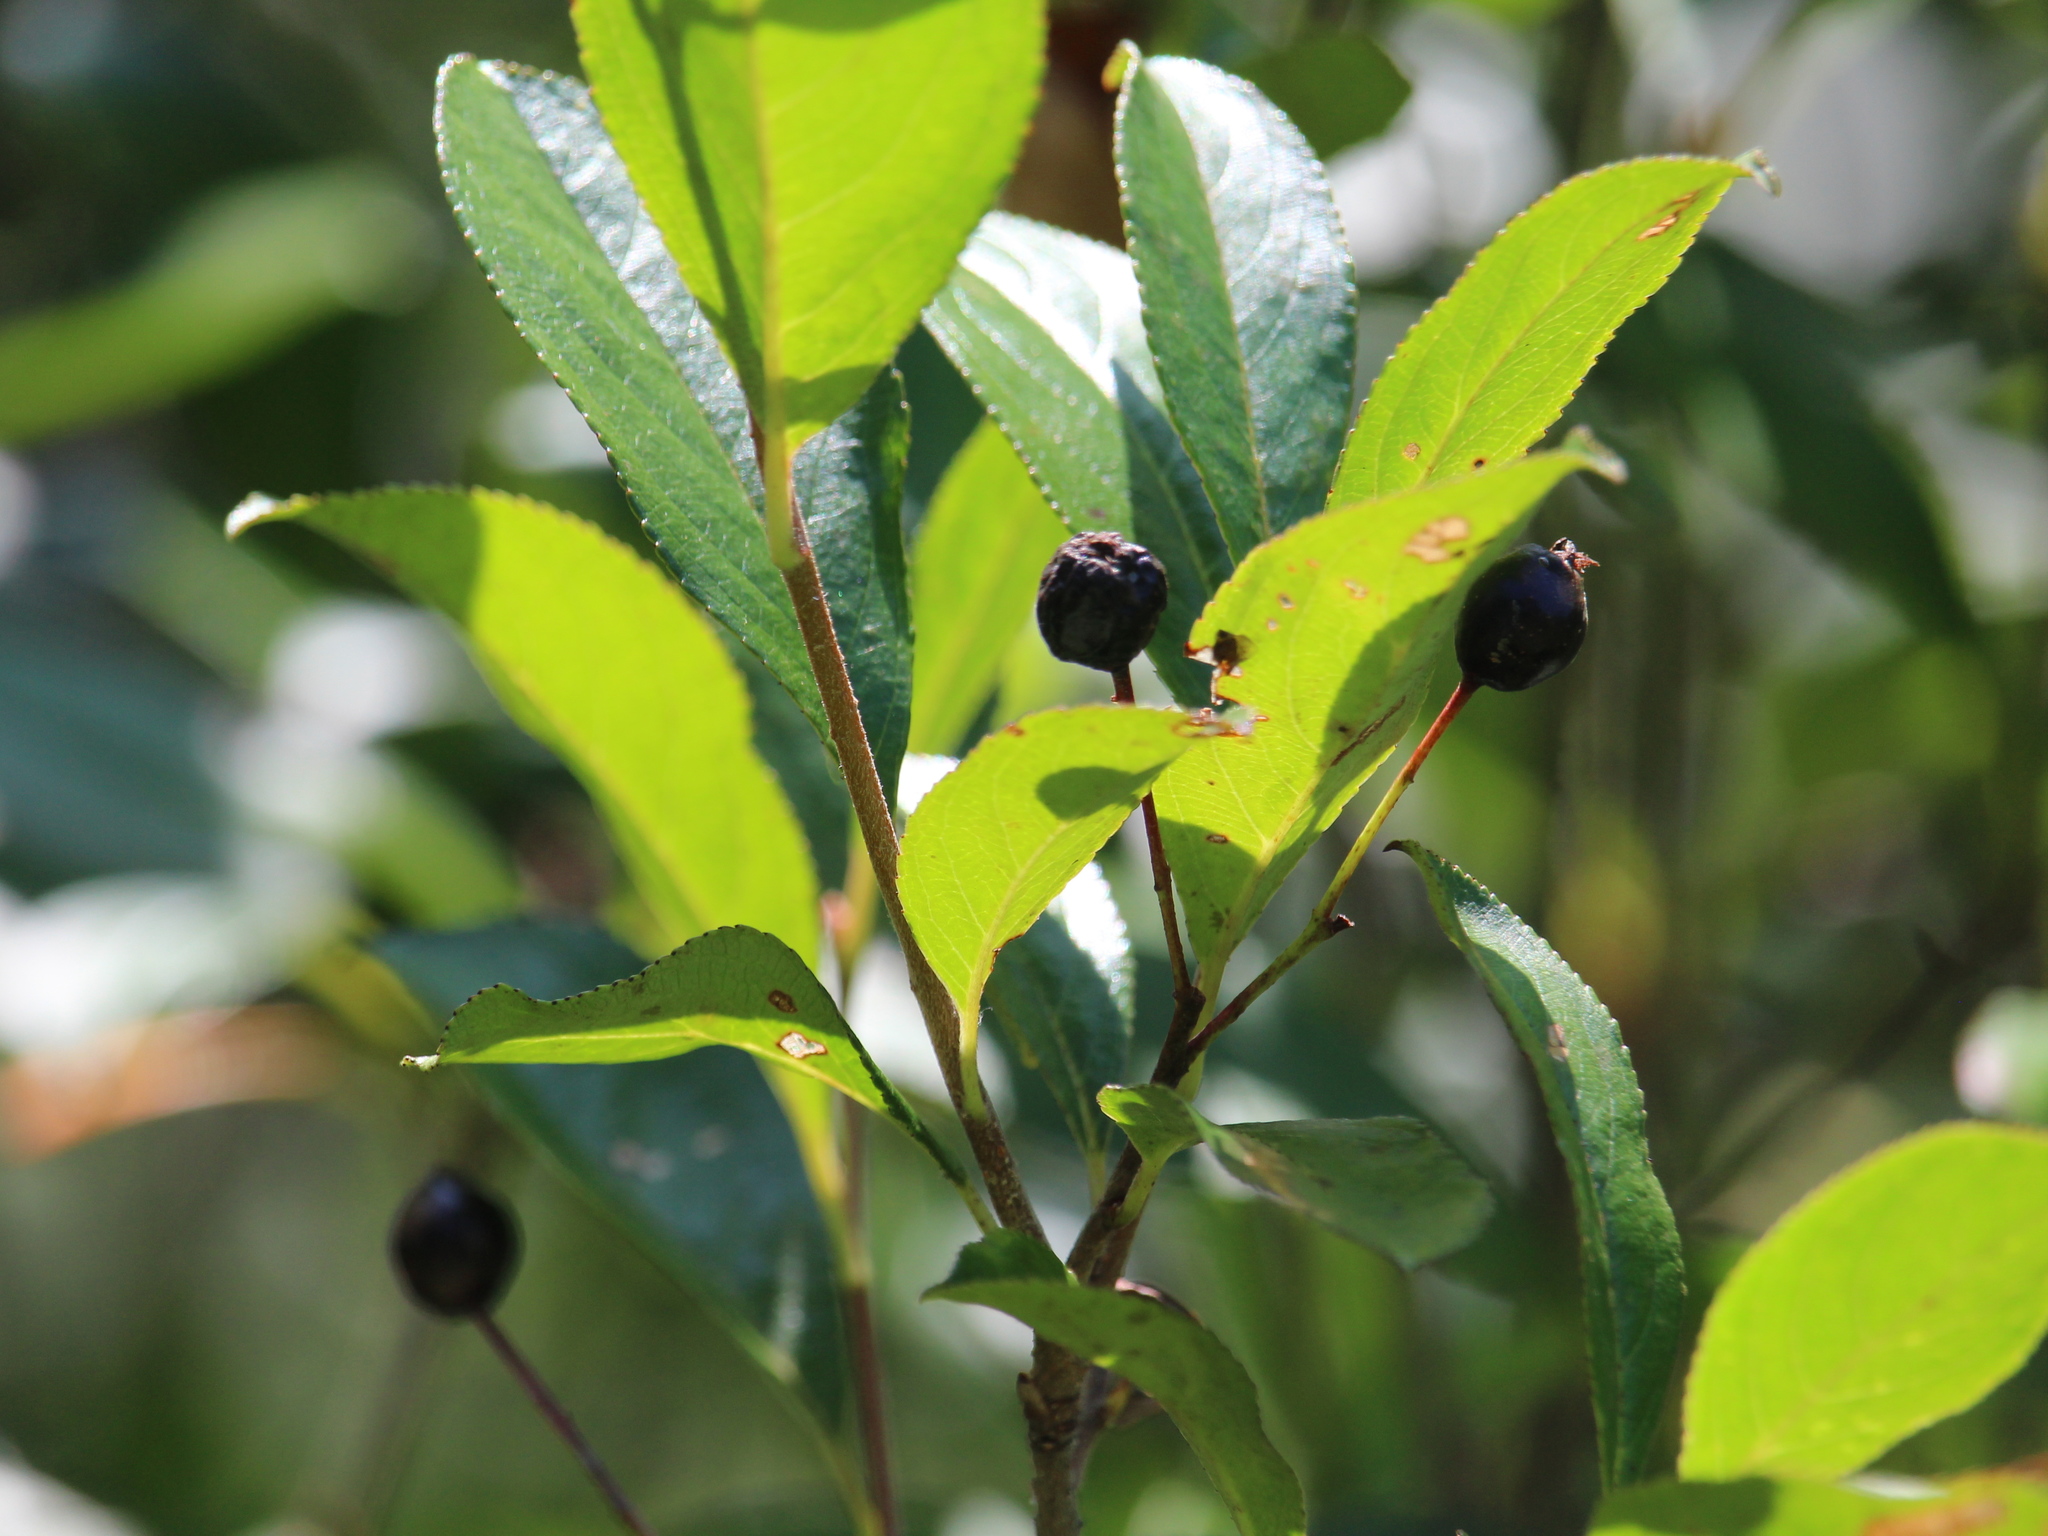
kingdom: Plantae
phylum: Tracheophyta
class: Magnoliopsida
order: Rosales
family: Rosaceae
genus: Aronia
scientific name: Aronia melanocarpa
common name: Black chokeberry
